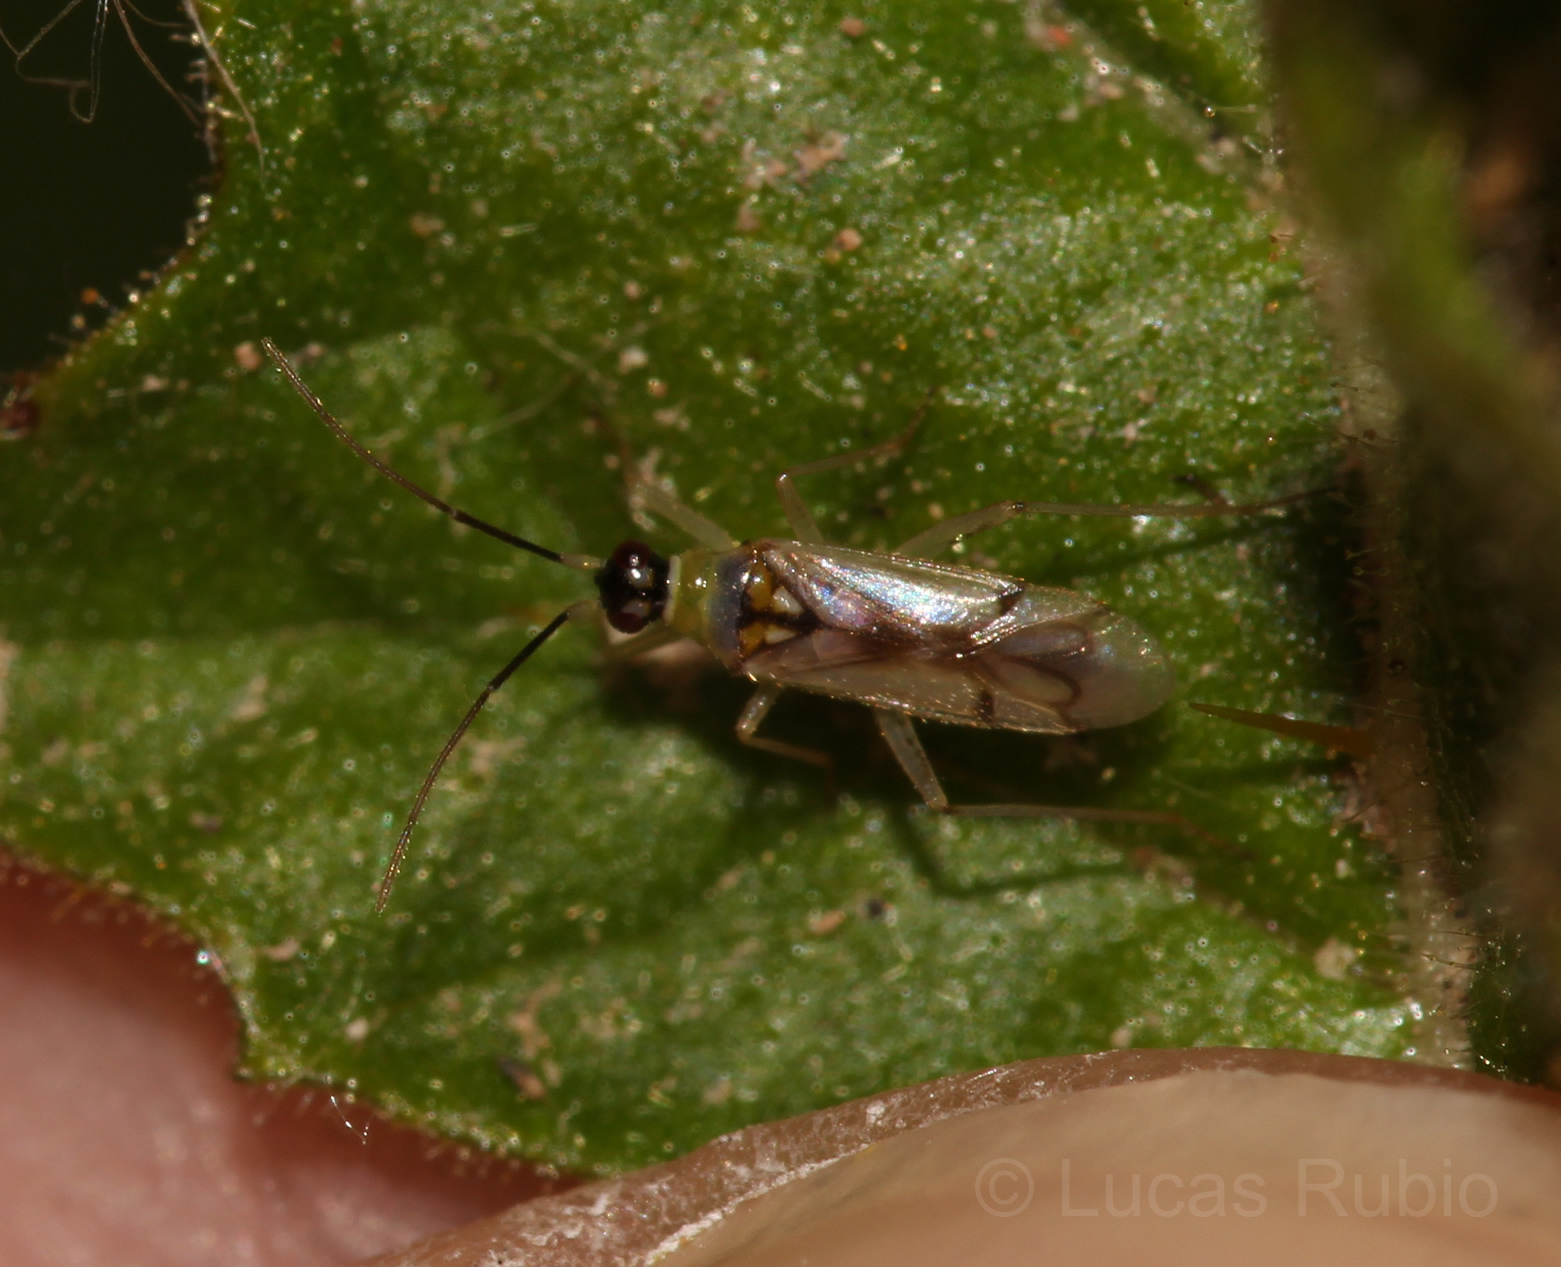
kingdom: Animalia
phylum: Arthropoda
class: Insecta
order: Hemiptera
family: Miridae
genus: Tupiocoris
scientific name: Tupiocoris cucurbitaceus
